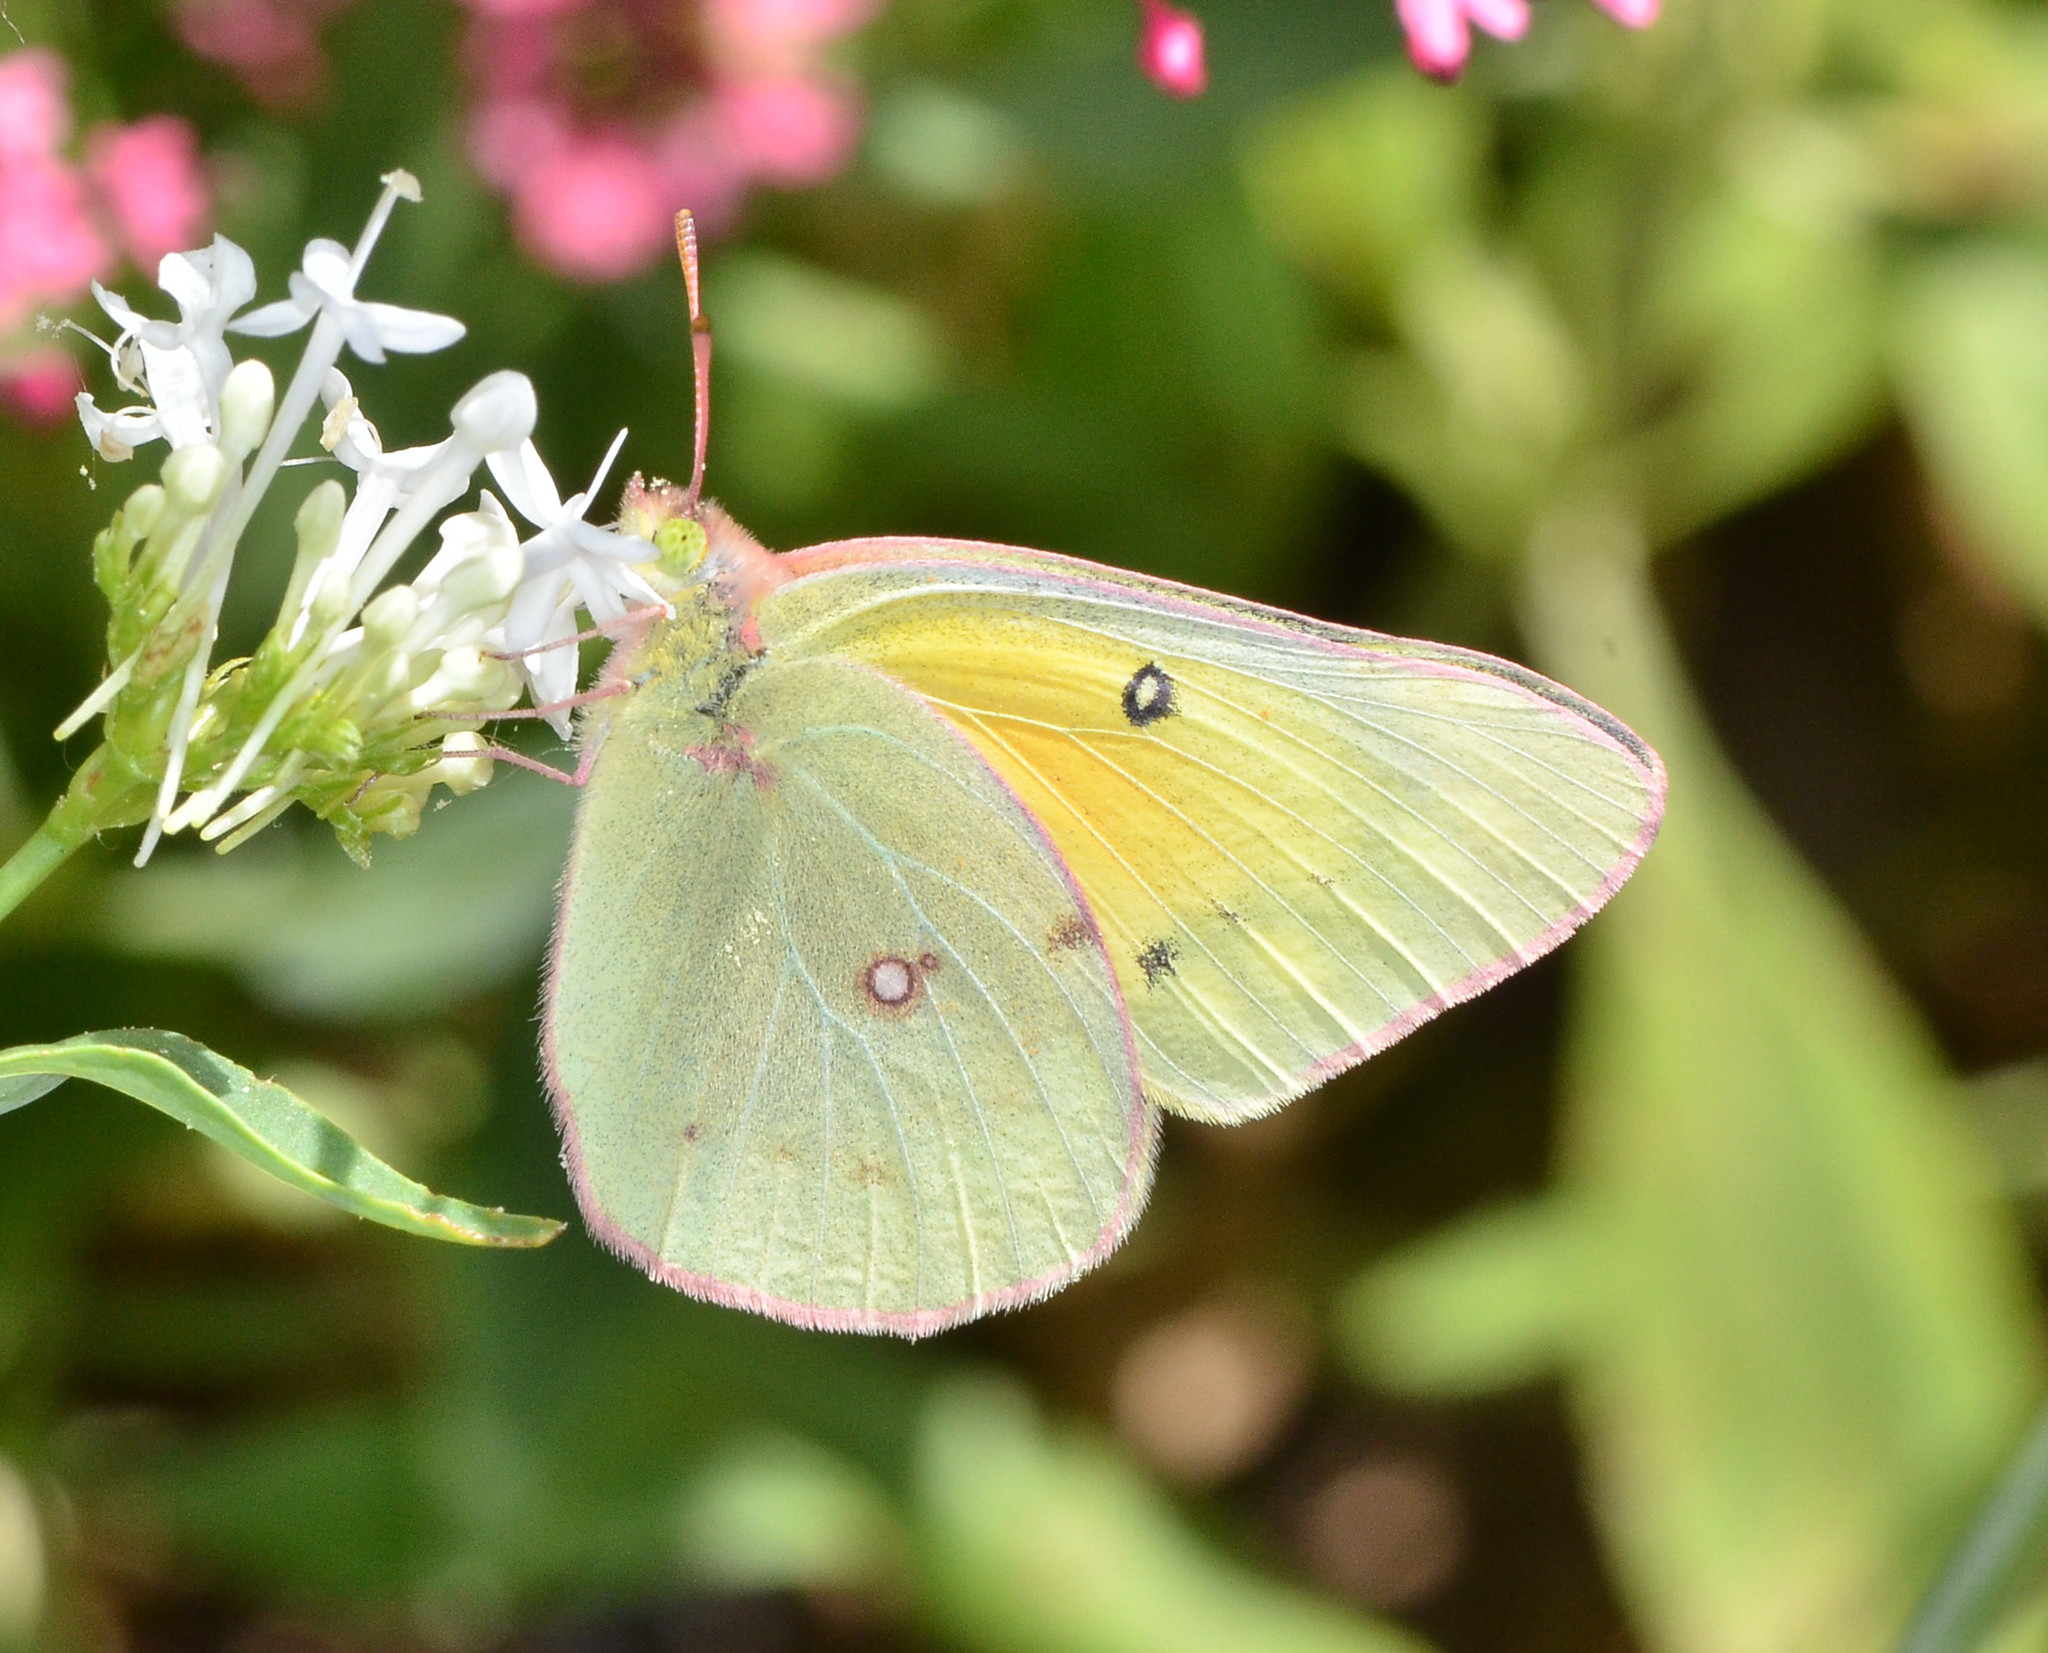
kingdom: Animalia
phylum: Arthropoda
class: Insecta
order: Lepidoptera
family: Pieridae
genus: Colias
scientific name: Colias eurytheme
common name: Alfalfa butterfly
